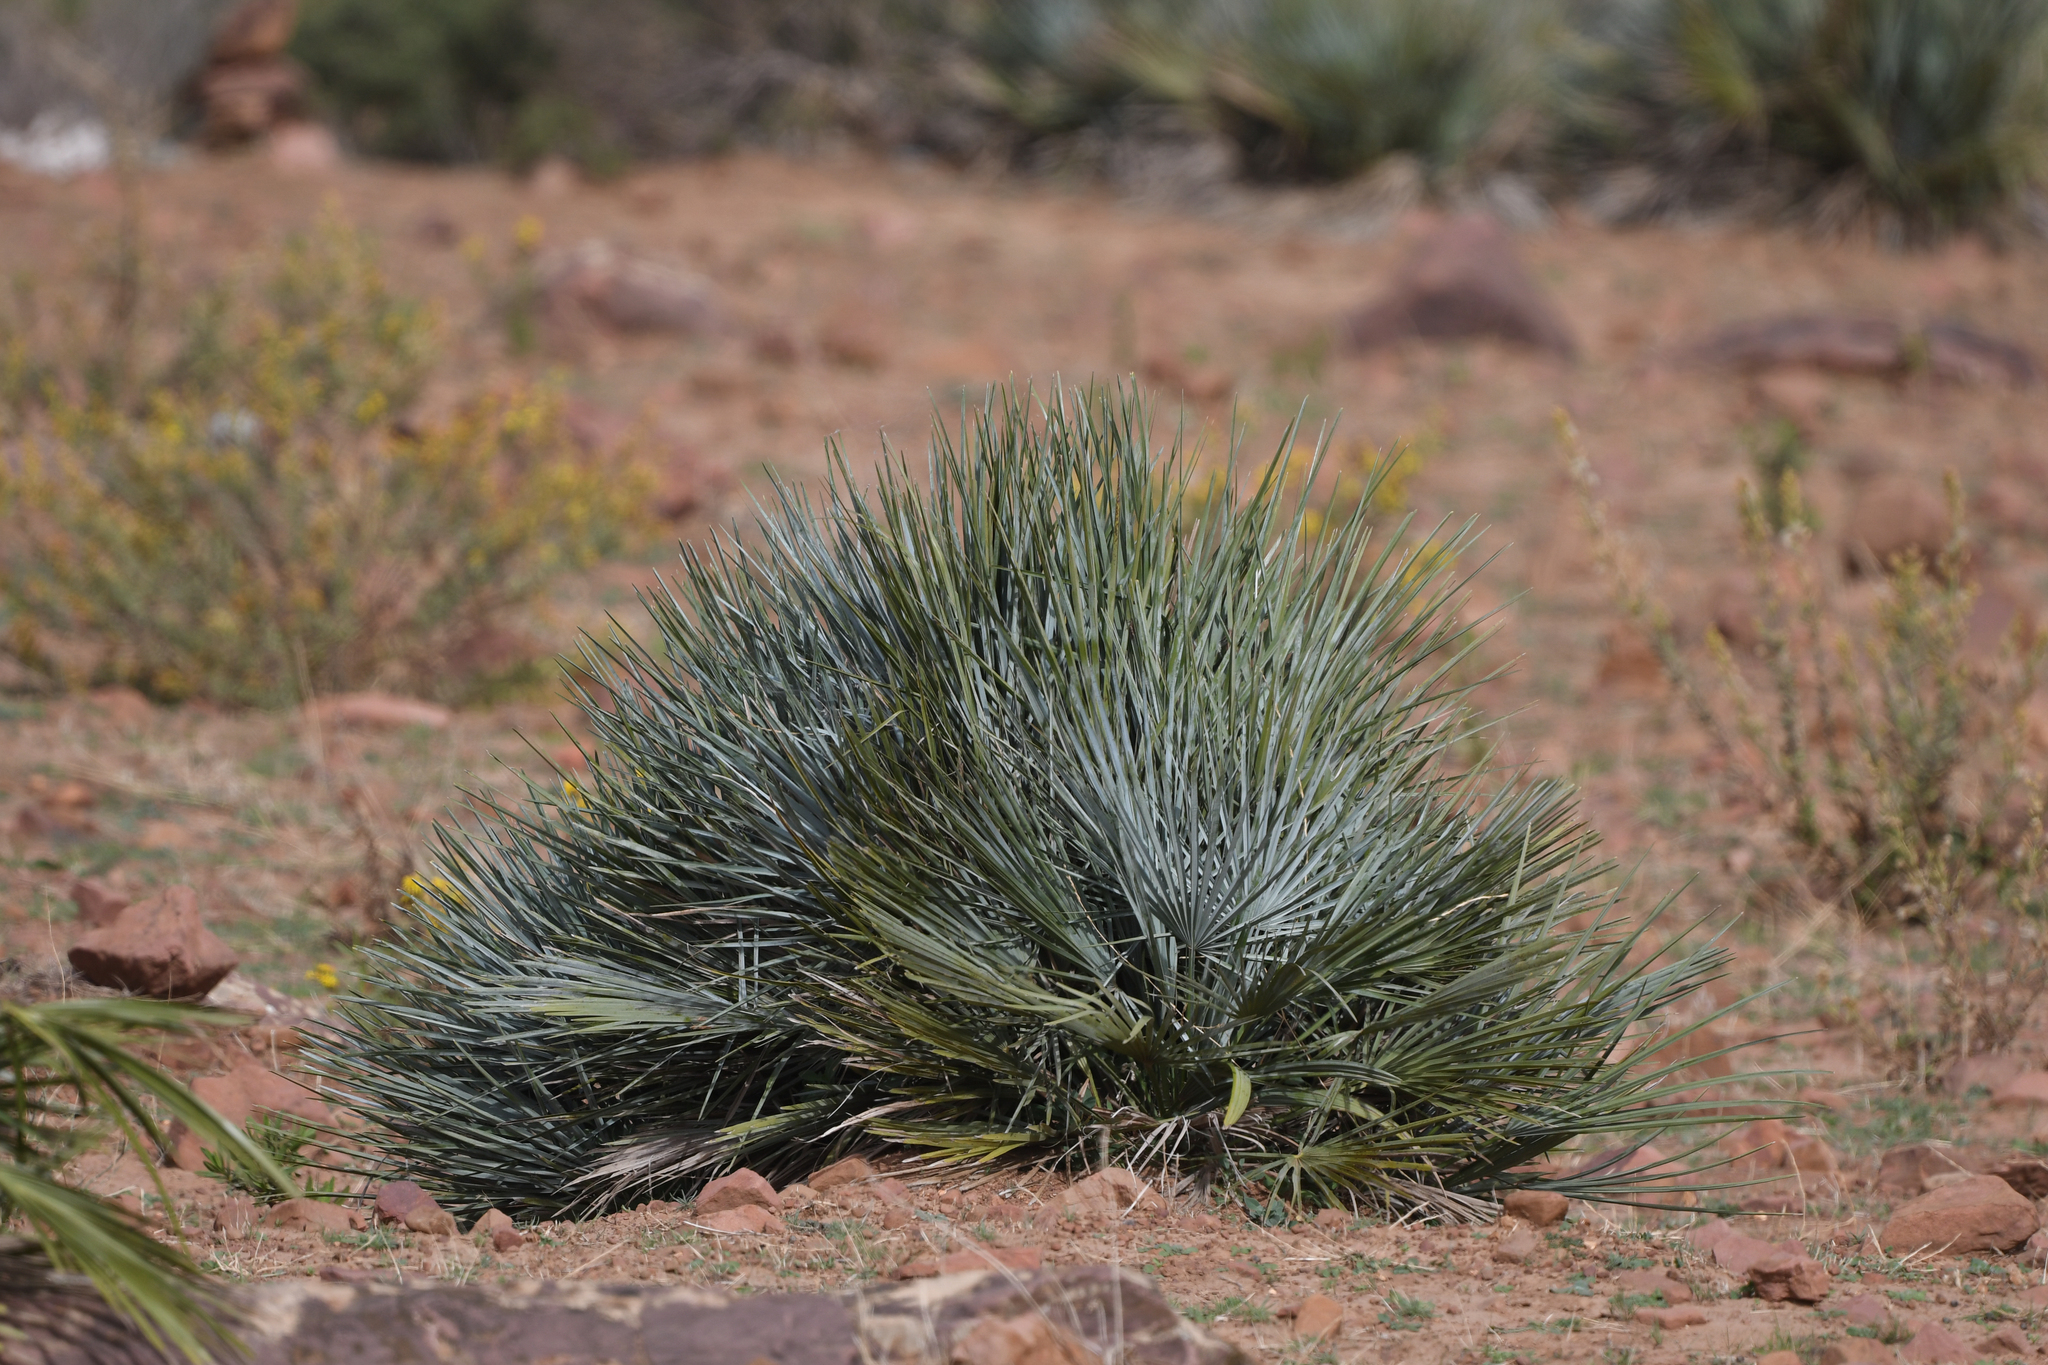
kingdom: Plantae
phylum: Tracheophyta
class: Liliopsida
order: Arecales
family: Arecaceae
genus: Chamaerops
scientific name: Chamaerops humilis
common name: Dwarf fan palm
